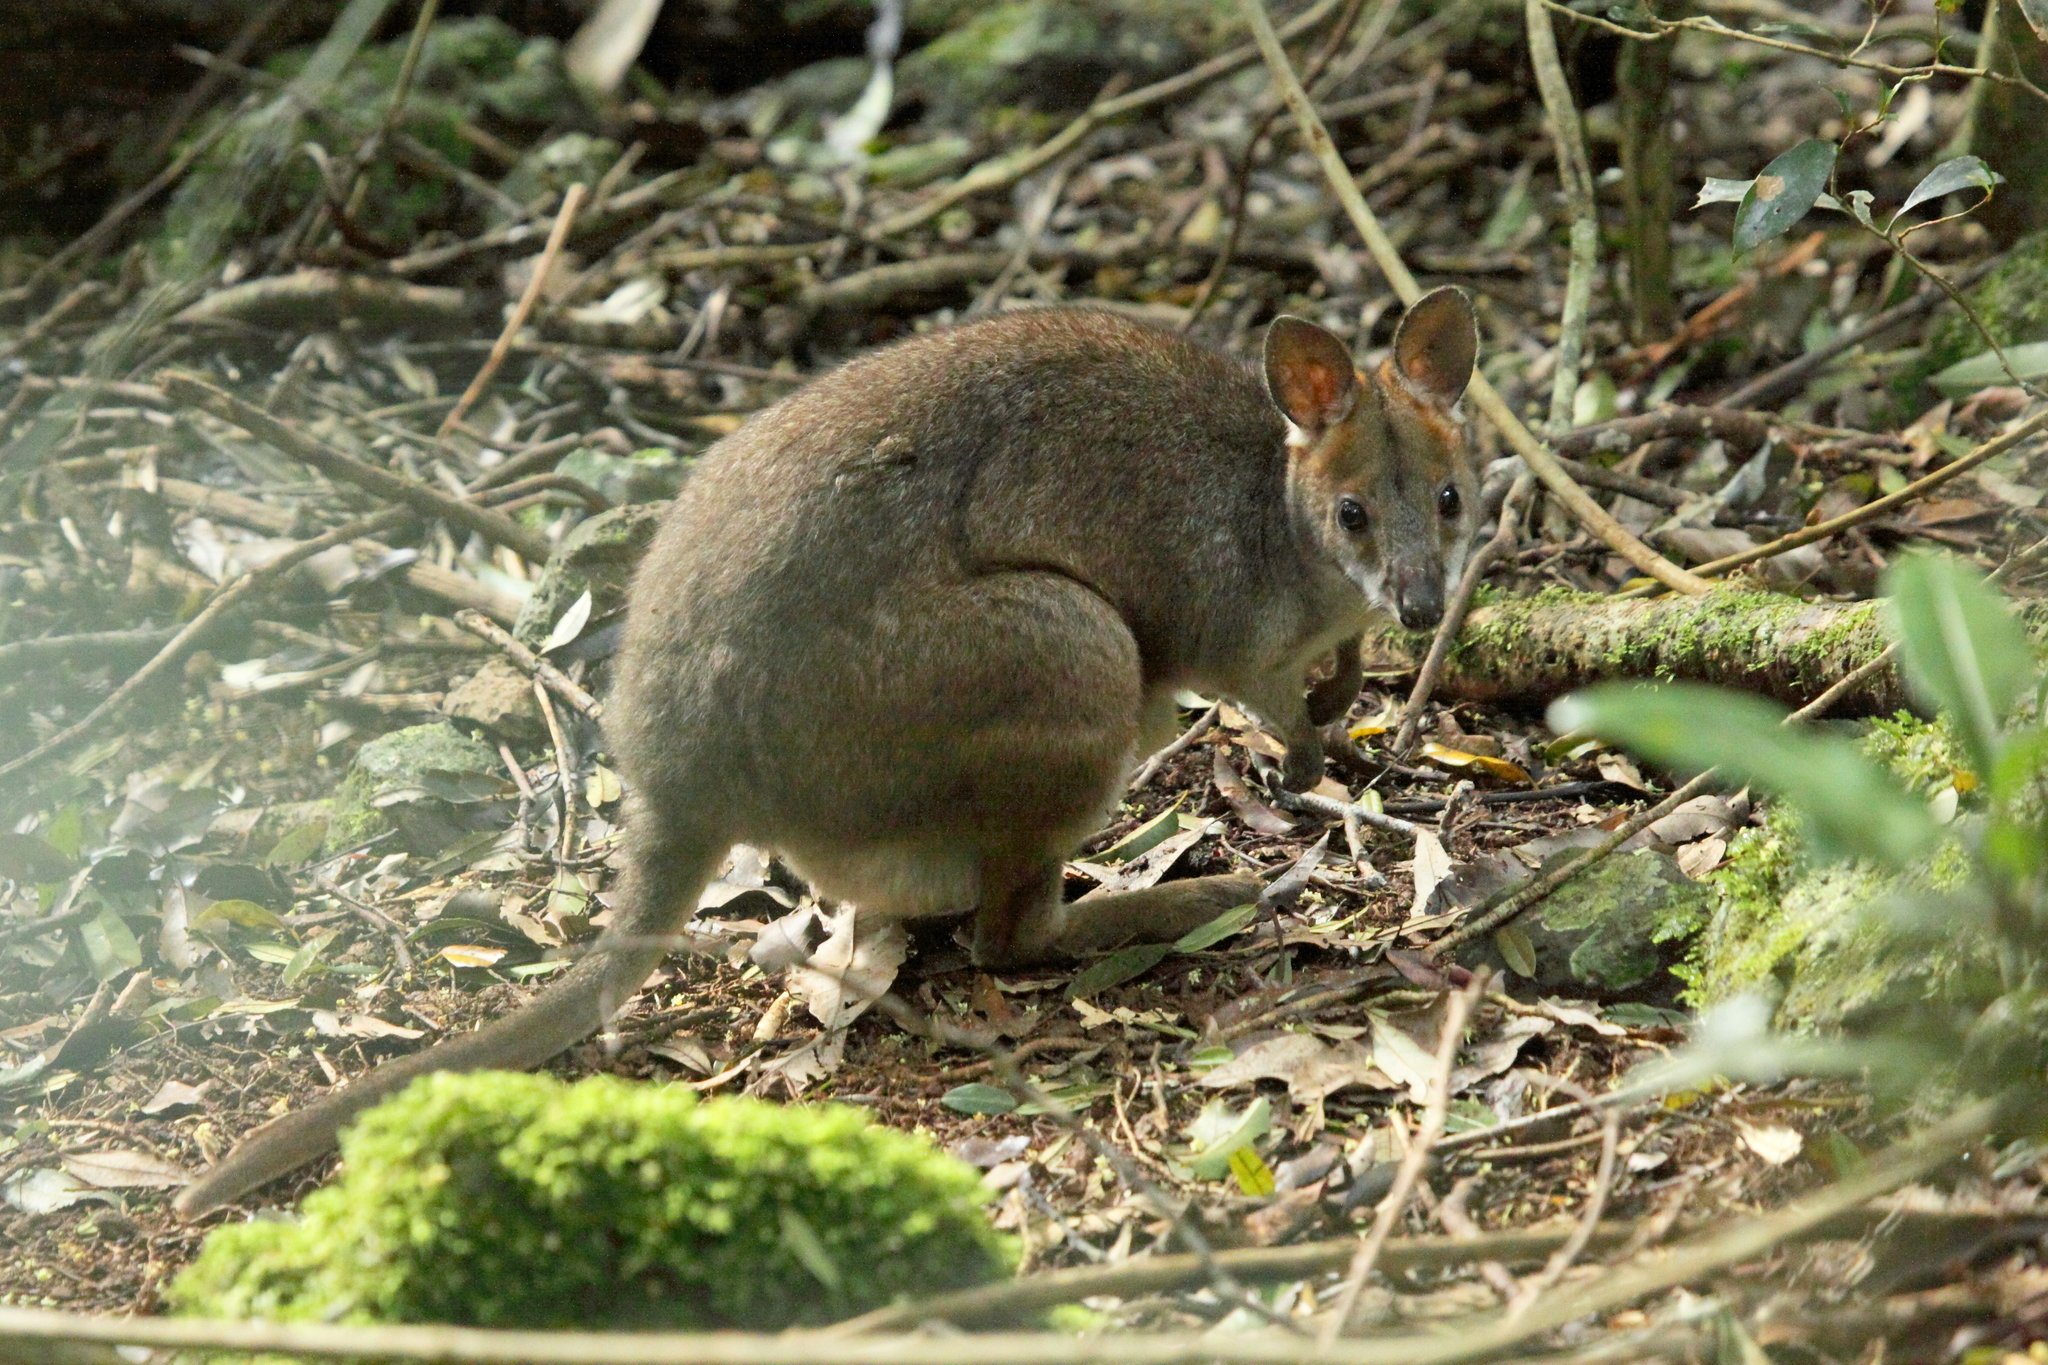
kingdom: Animalia
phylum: Chordata
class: Mammalia
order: Diprotodontia
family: Macropodidae
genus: Thylogale
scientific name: Thylogale stigmatica
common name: Red-legged pademelon
